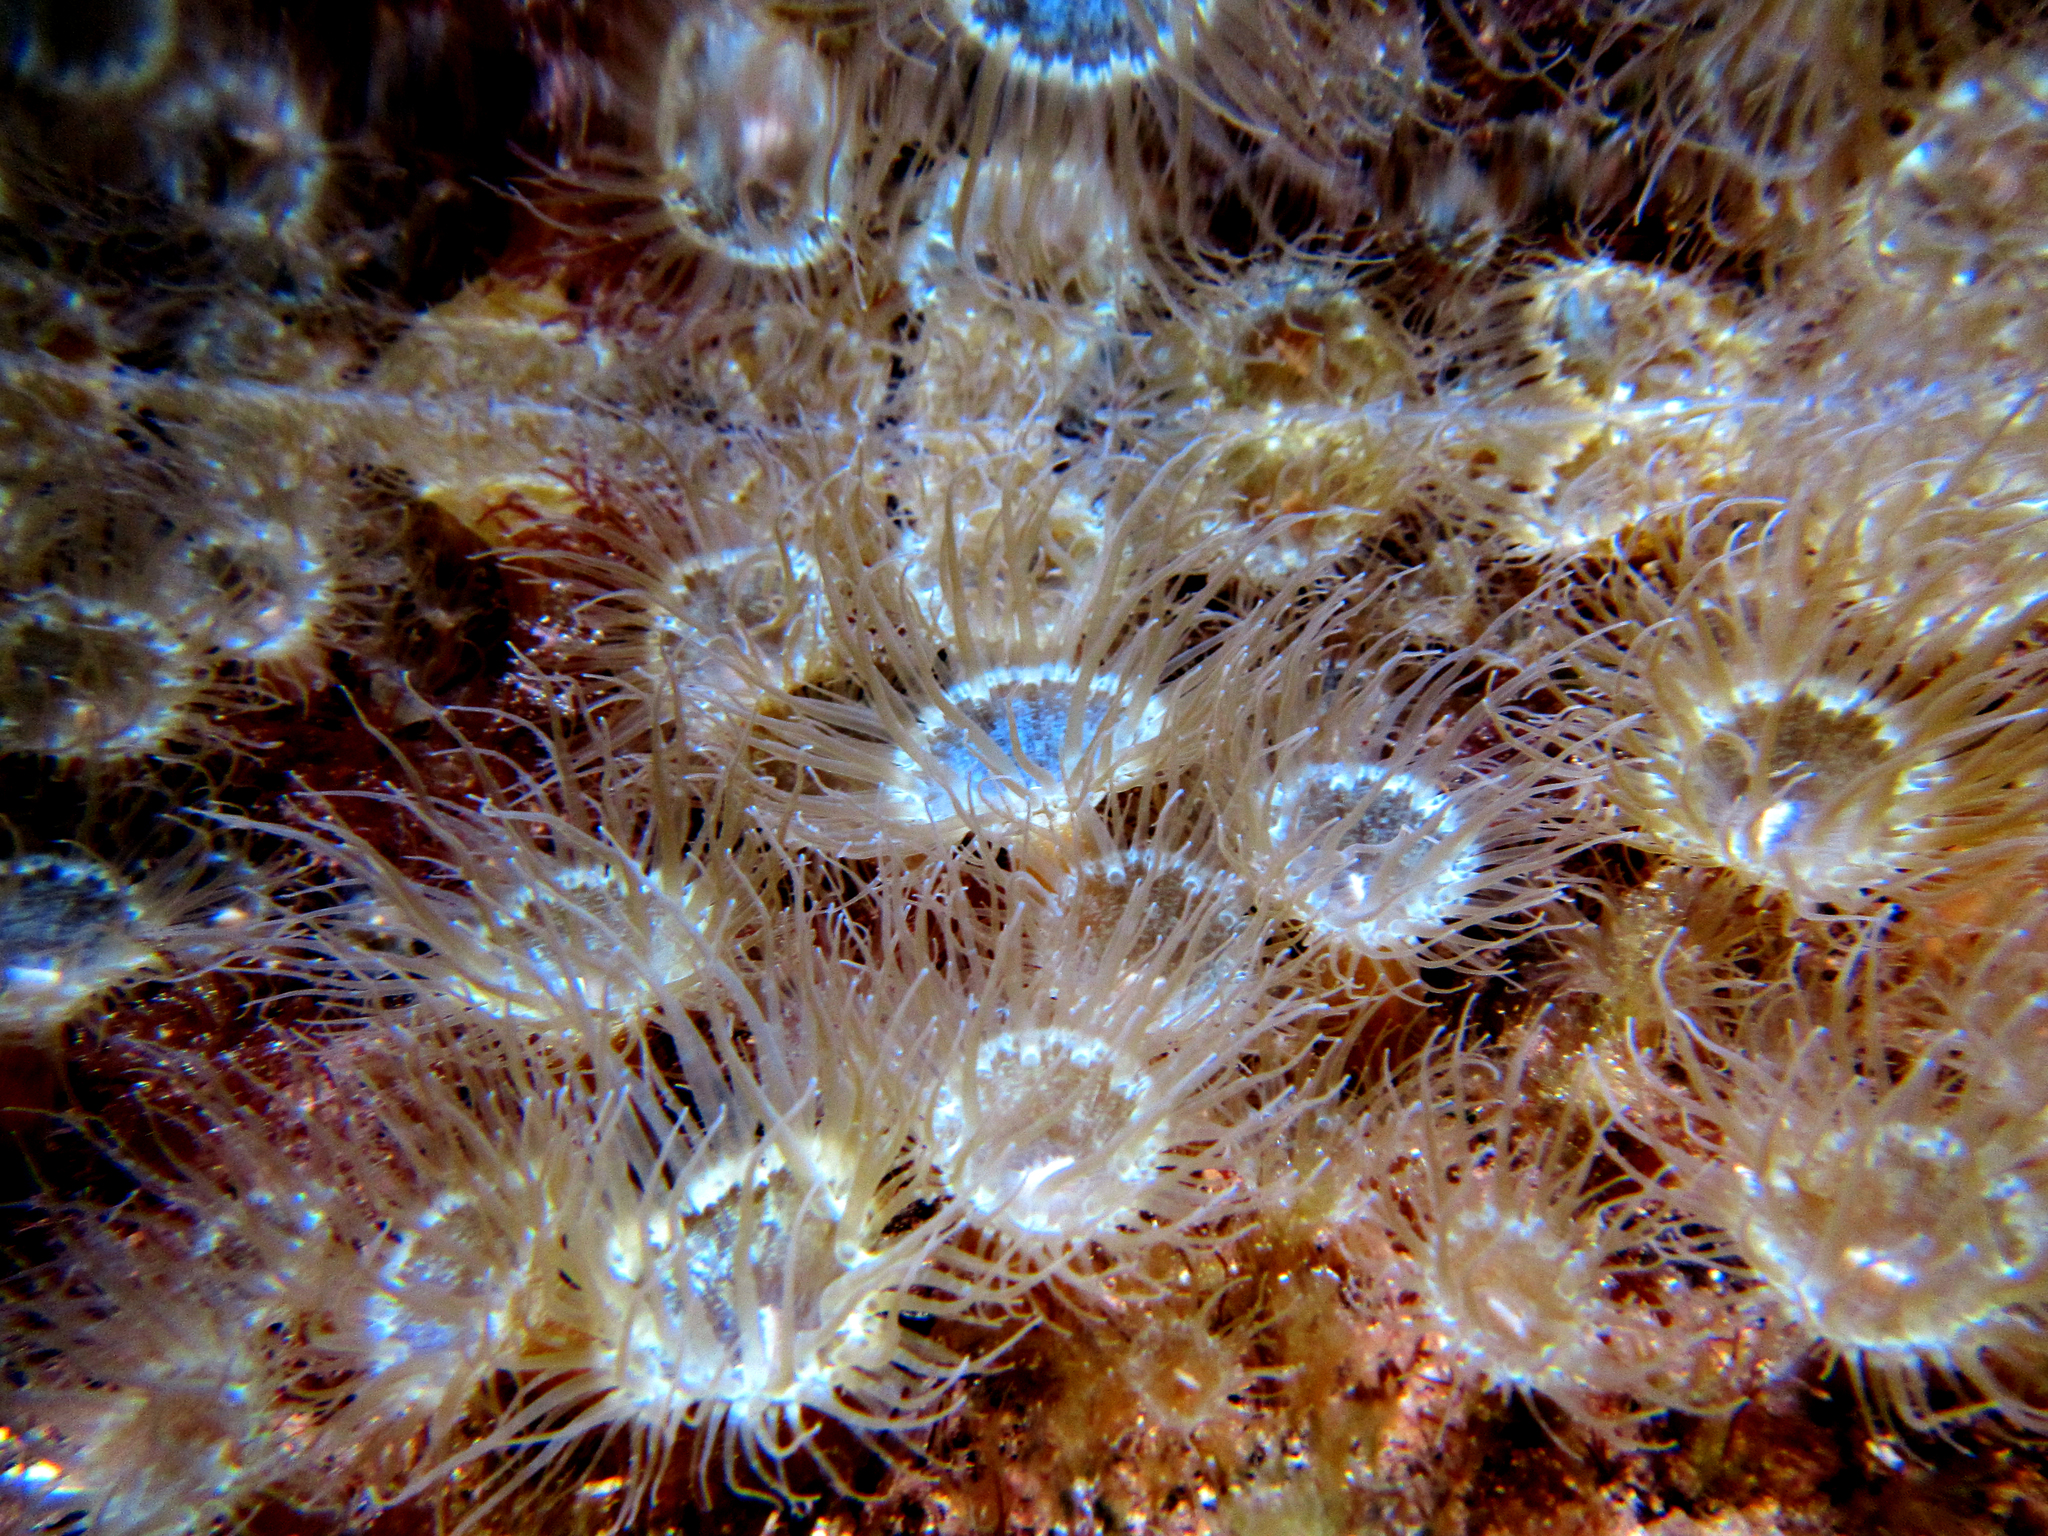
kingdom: Animalia
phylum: Cnidaria
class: Anthozoa
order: Actiniaria
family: Aiptasiidae
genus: Exaiptasia
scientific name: Exaiptasia diaphana
